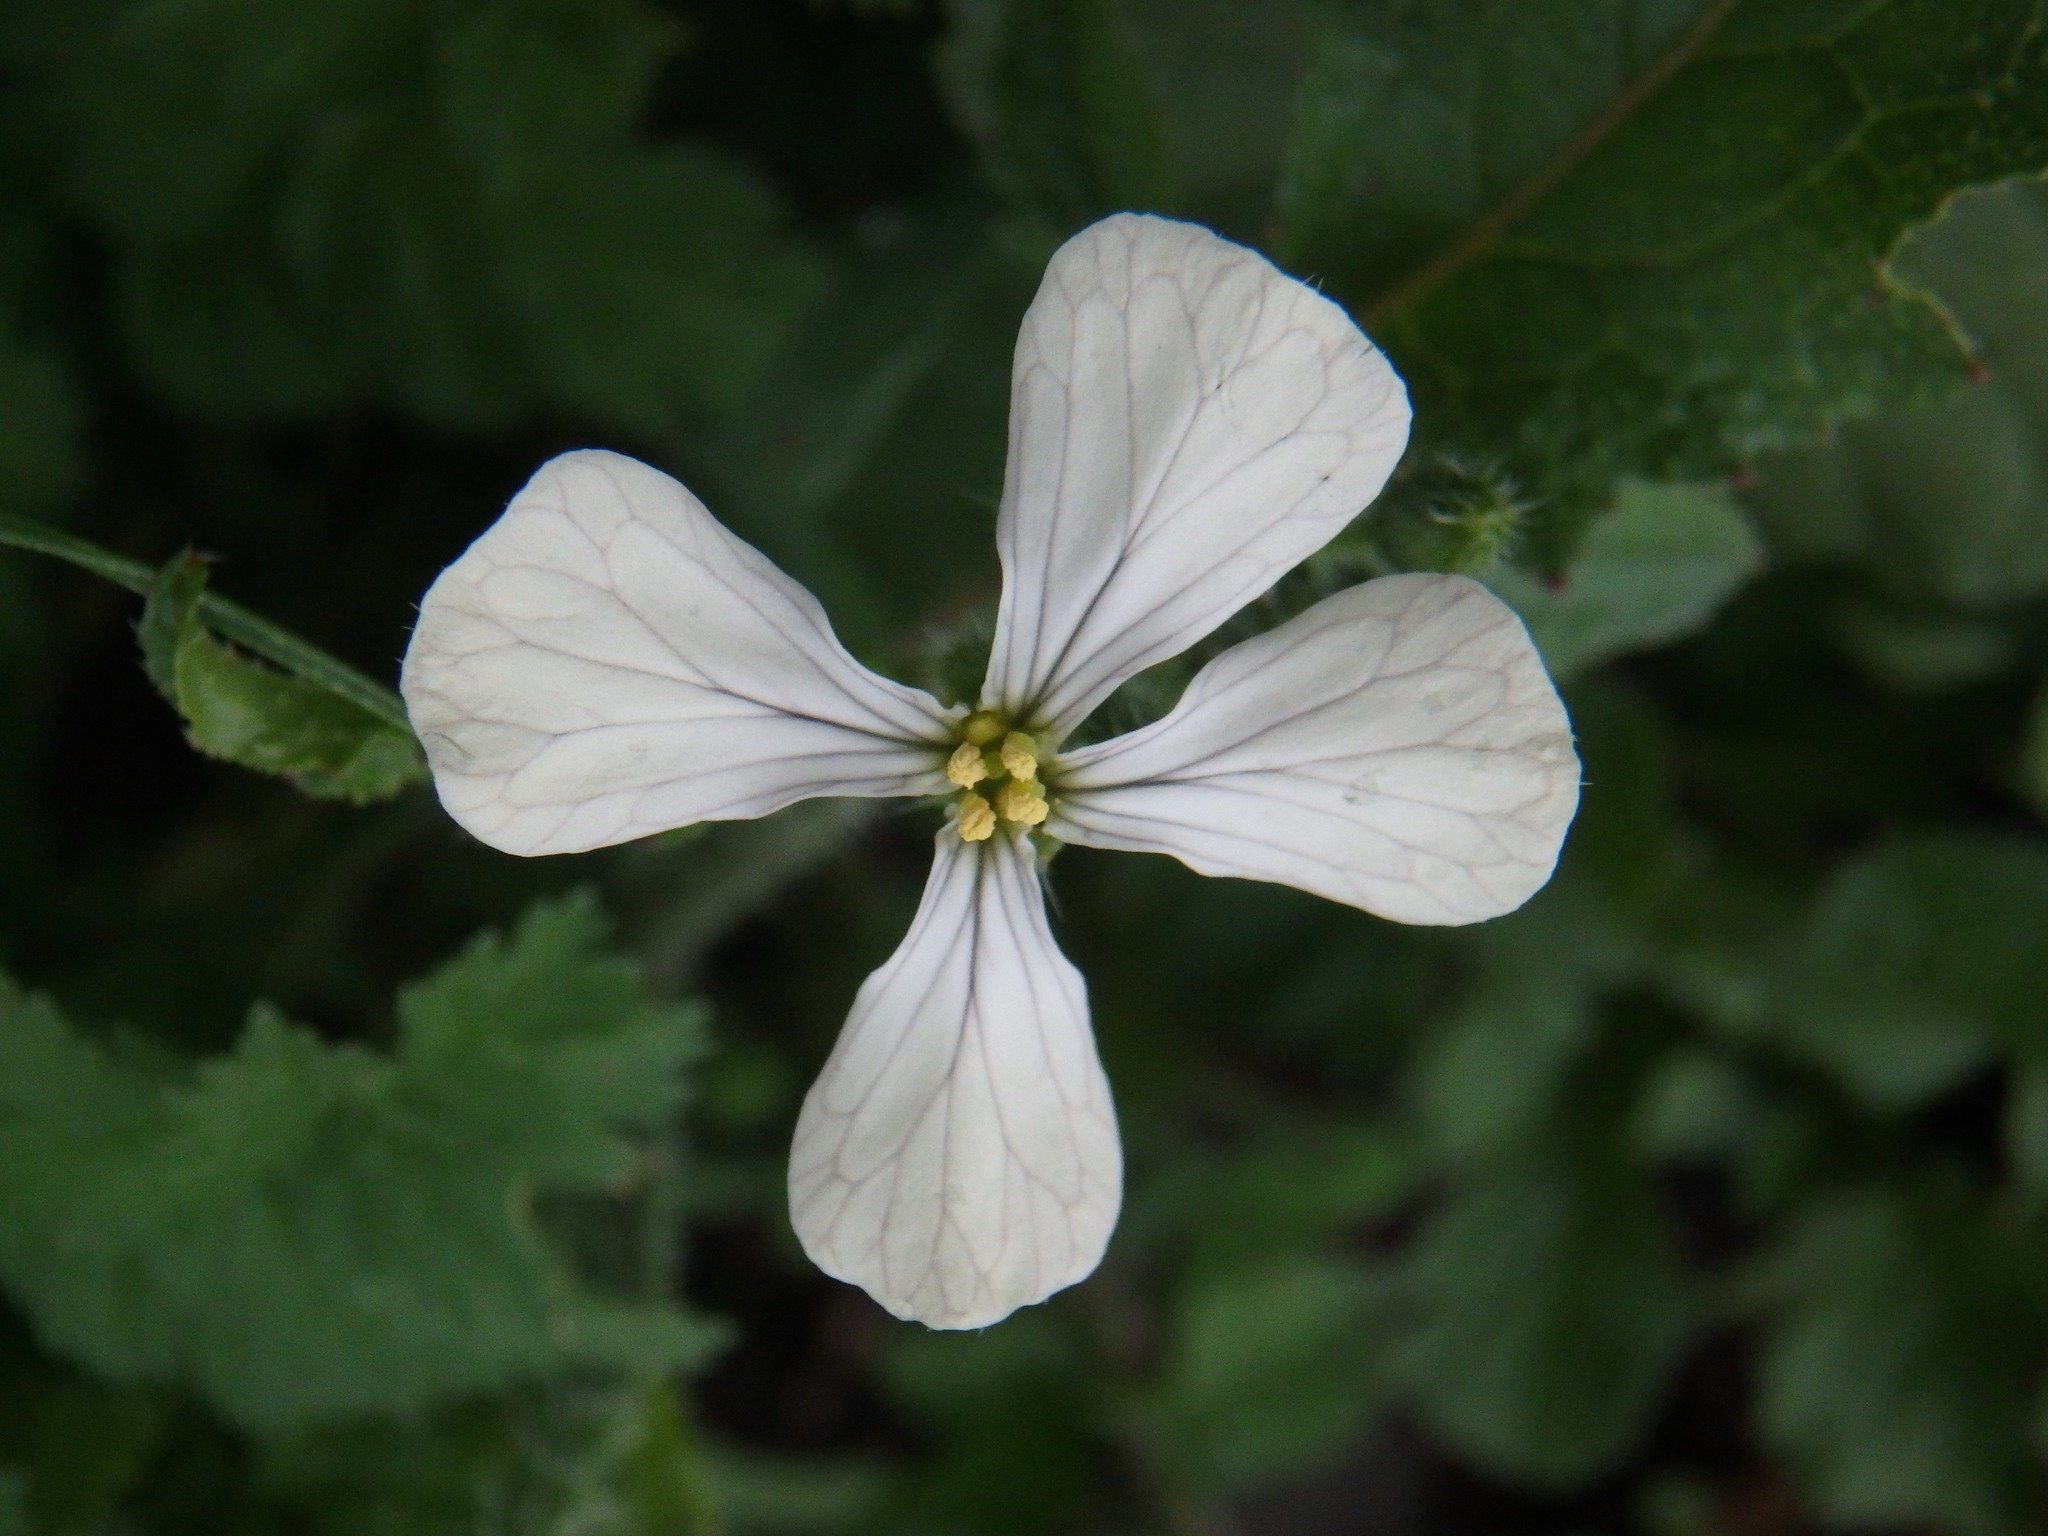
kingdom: Plantae
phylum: Tracheophyta
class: Magnoliopsida
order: Brassicales
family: Brassicaceae
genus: Raphanus
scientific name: Raphanus raphanistrum
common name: Wild radish
